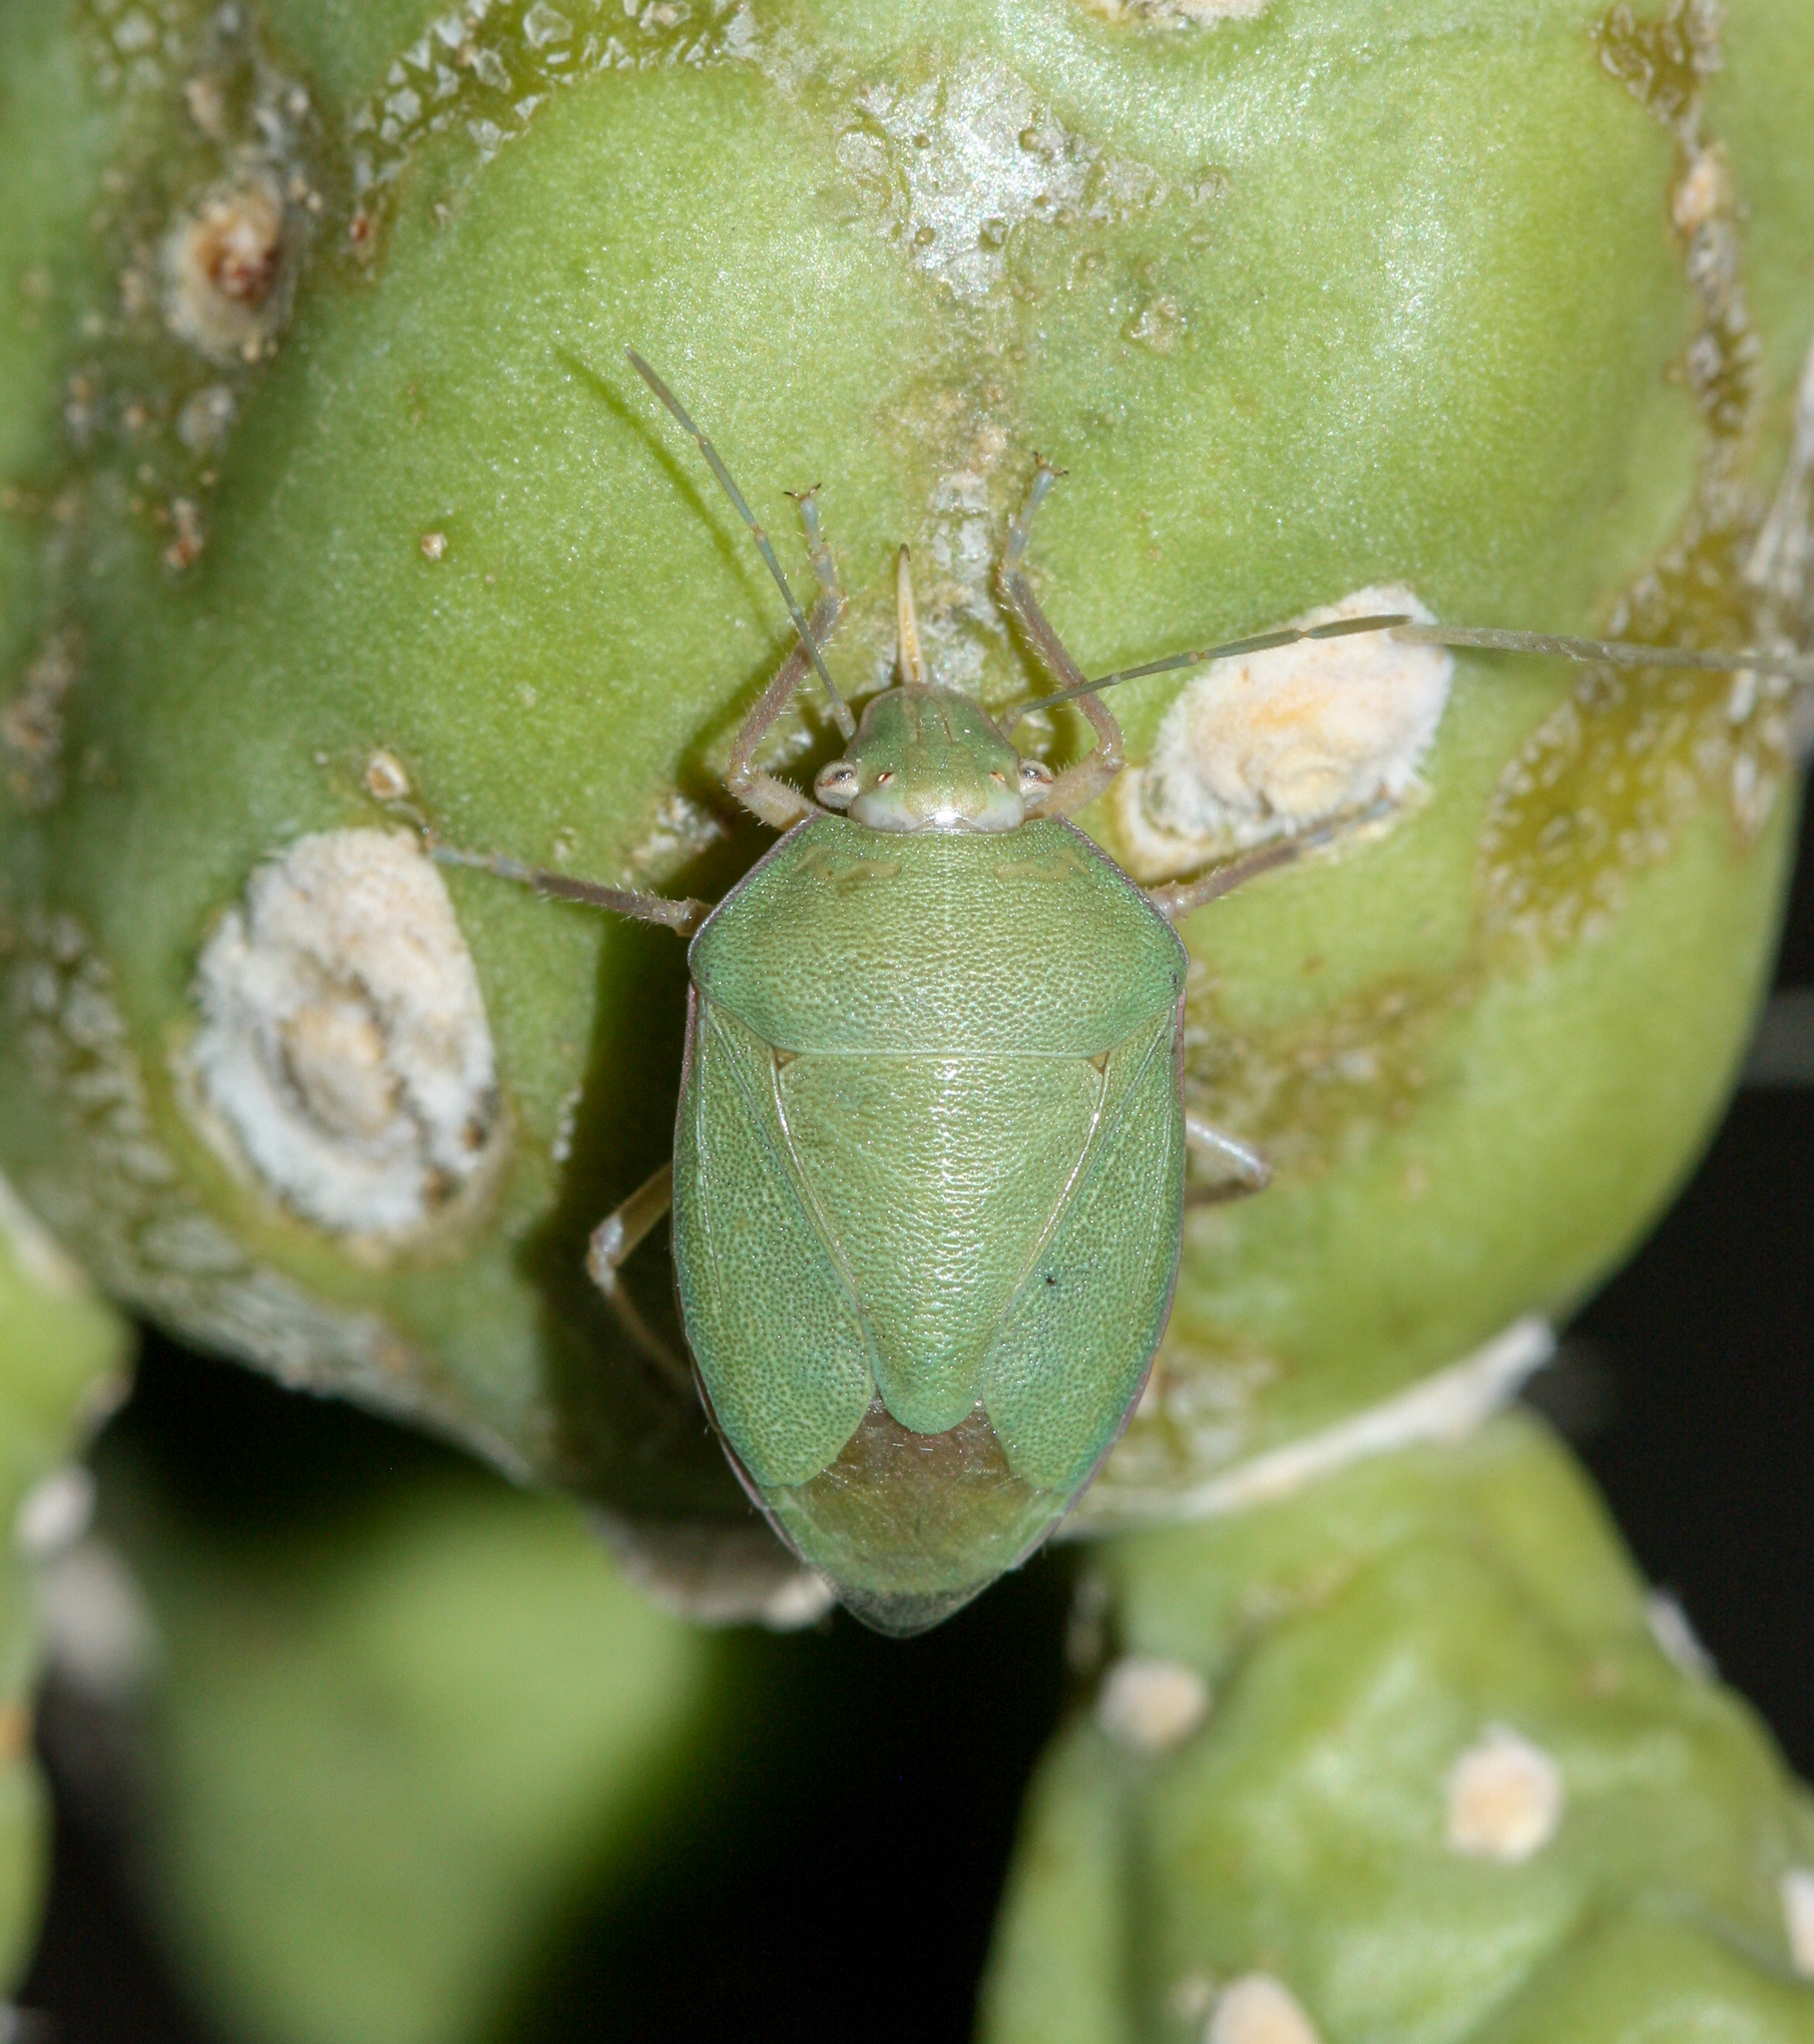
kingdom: Animalia
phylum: Arthropoda
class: Insecta
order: Hemiptera
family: Pentatomidae
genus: Chlorochroa
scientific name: Chlorochroa opuntiae
